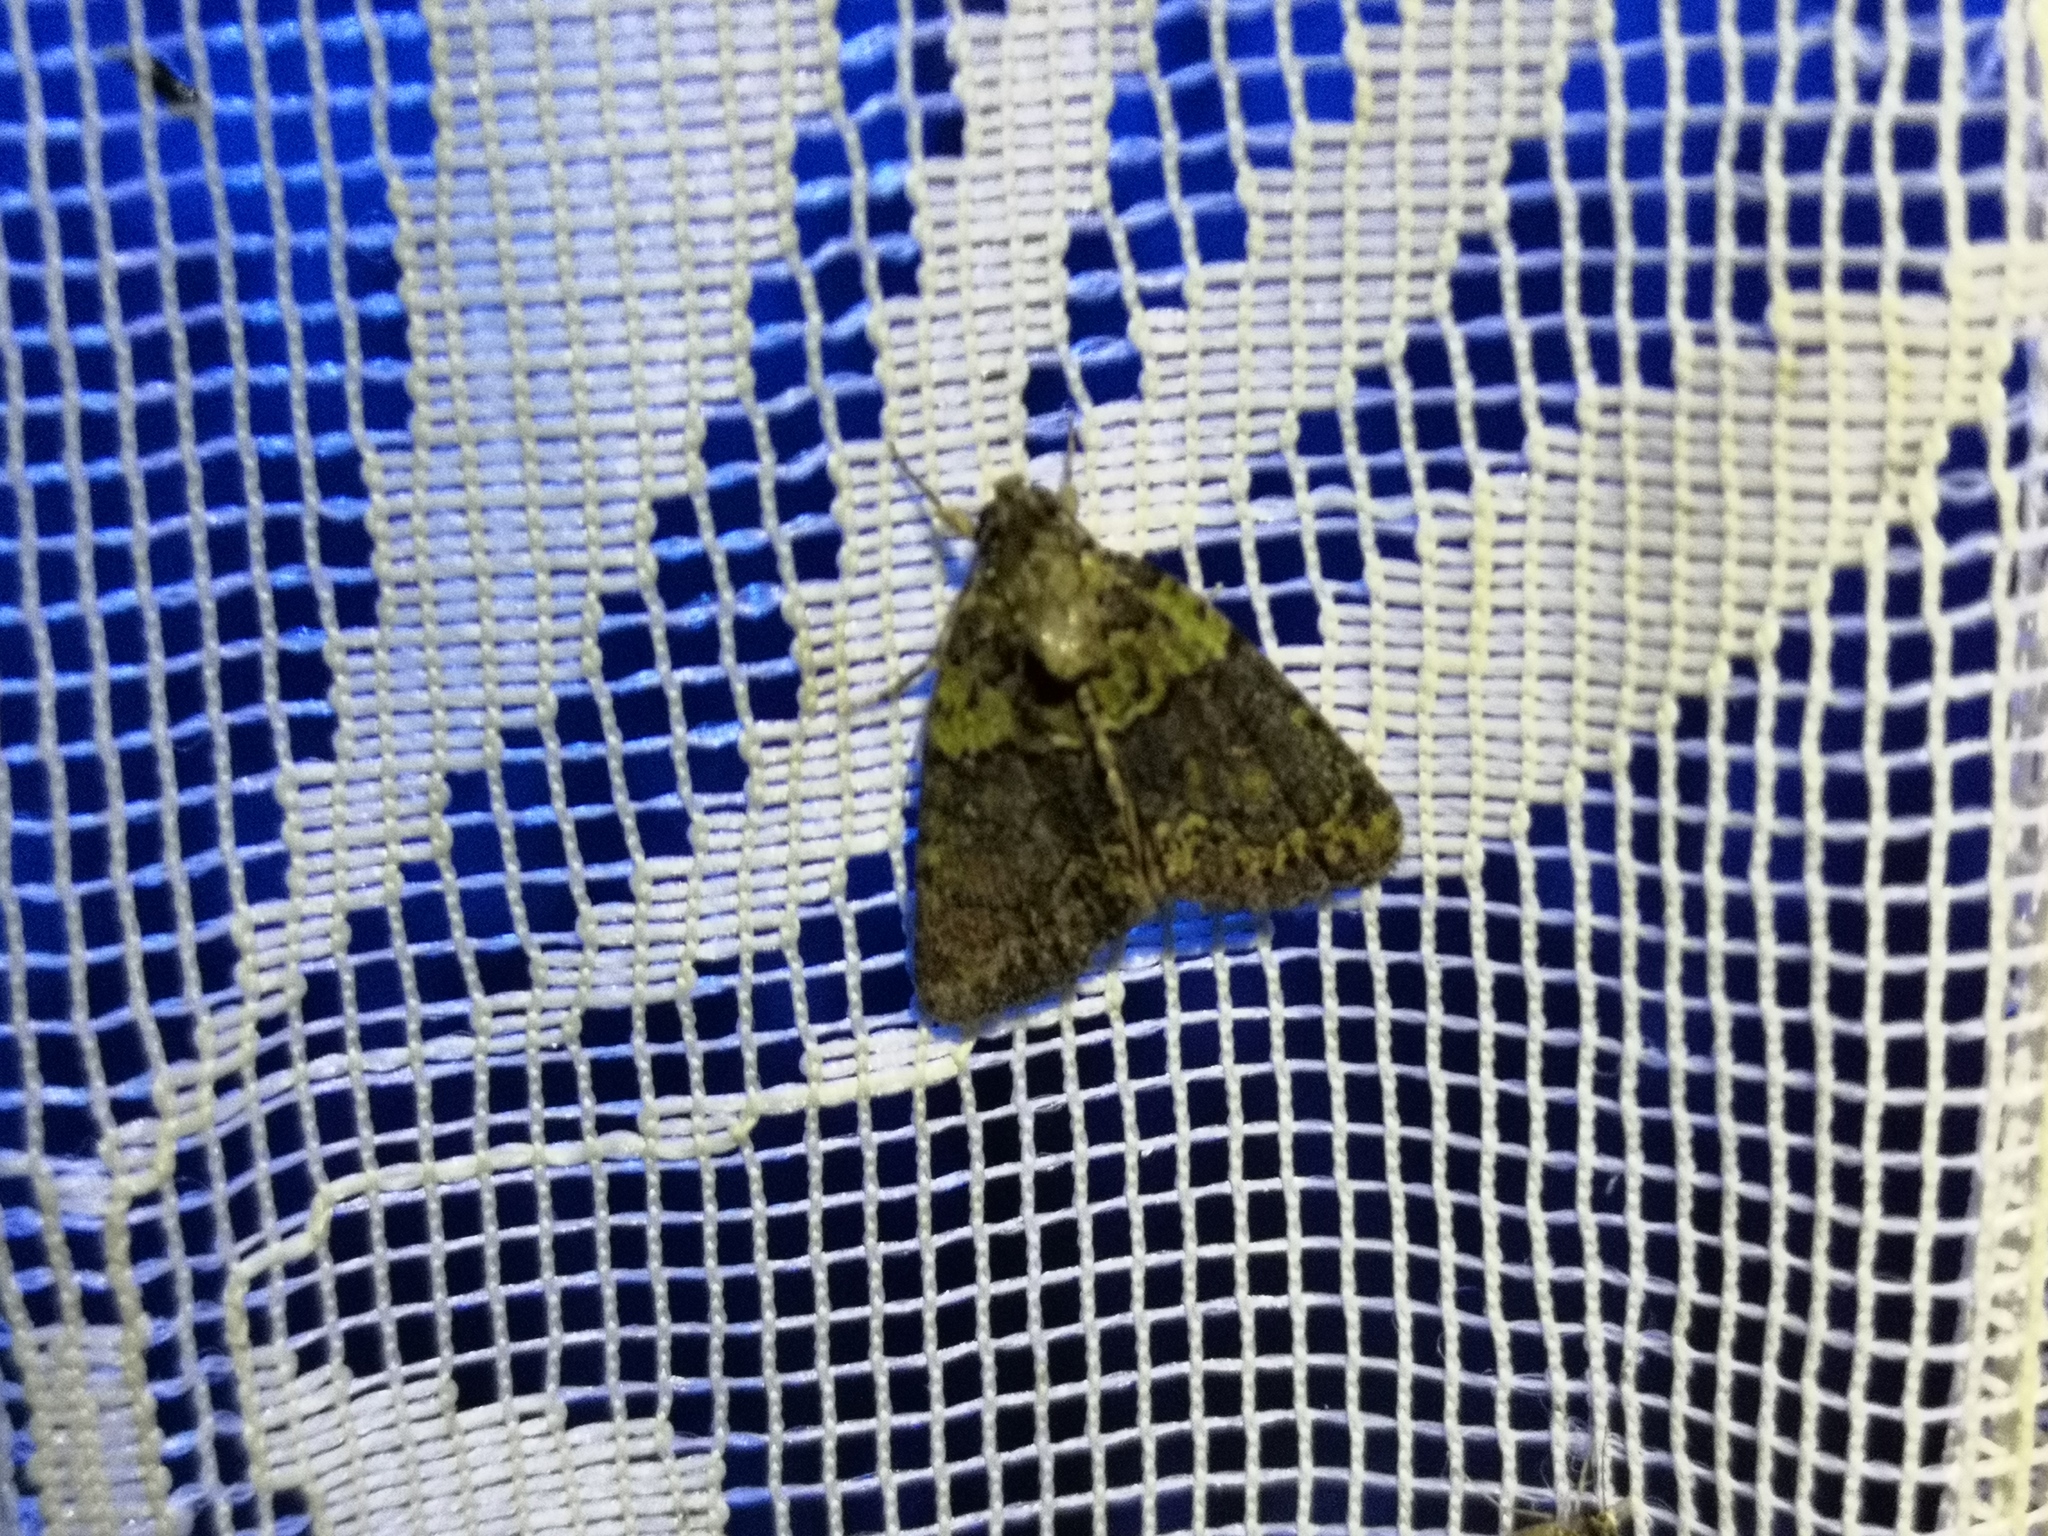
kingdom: Animalia
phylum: Arthropoda
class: Insecta
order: Lepidoptera
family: Noctuidae
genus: Cryphia
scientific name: Cryphia algae
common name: Tree-lichen beauty
